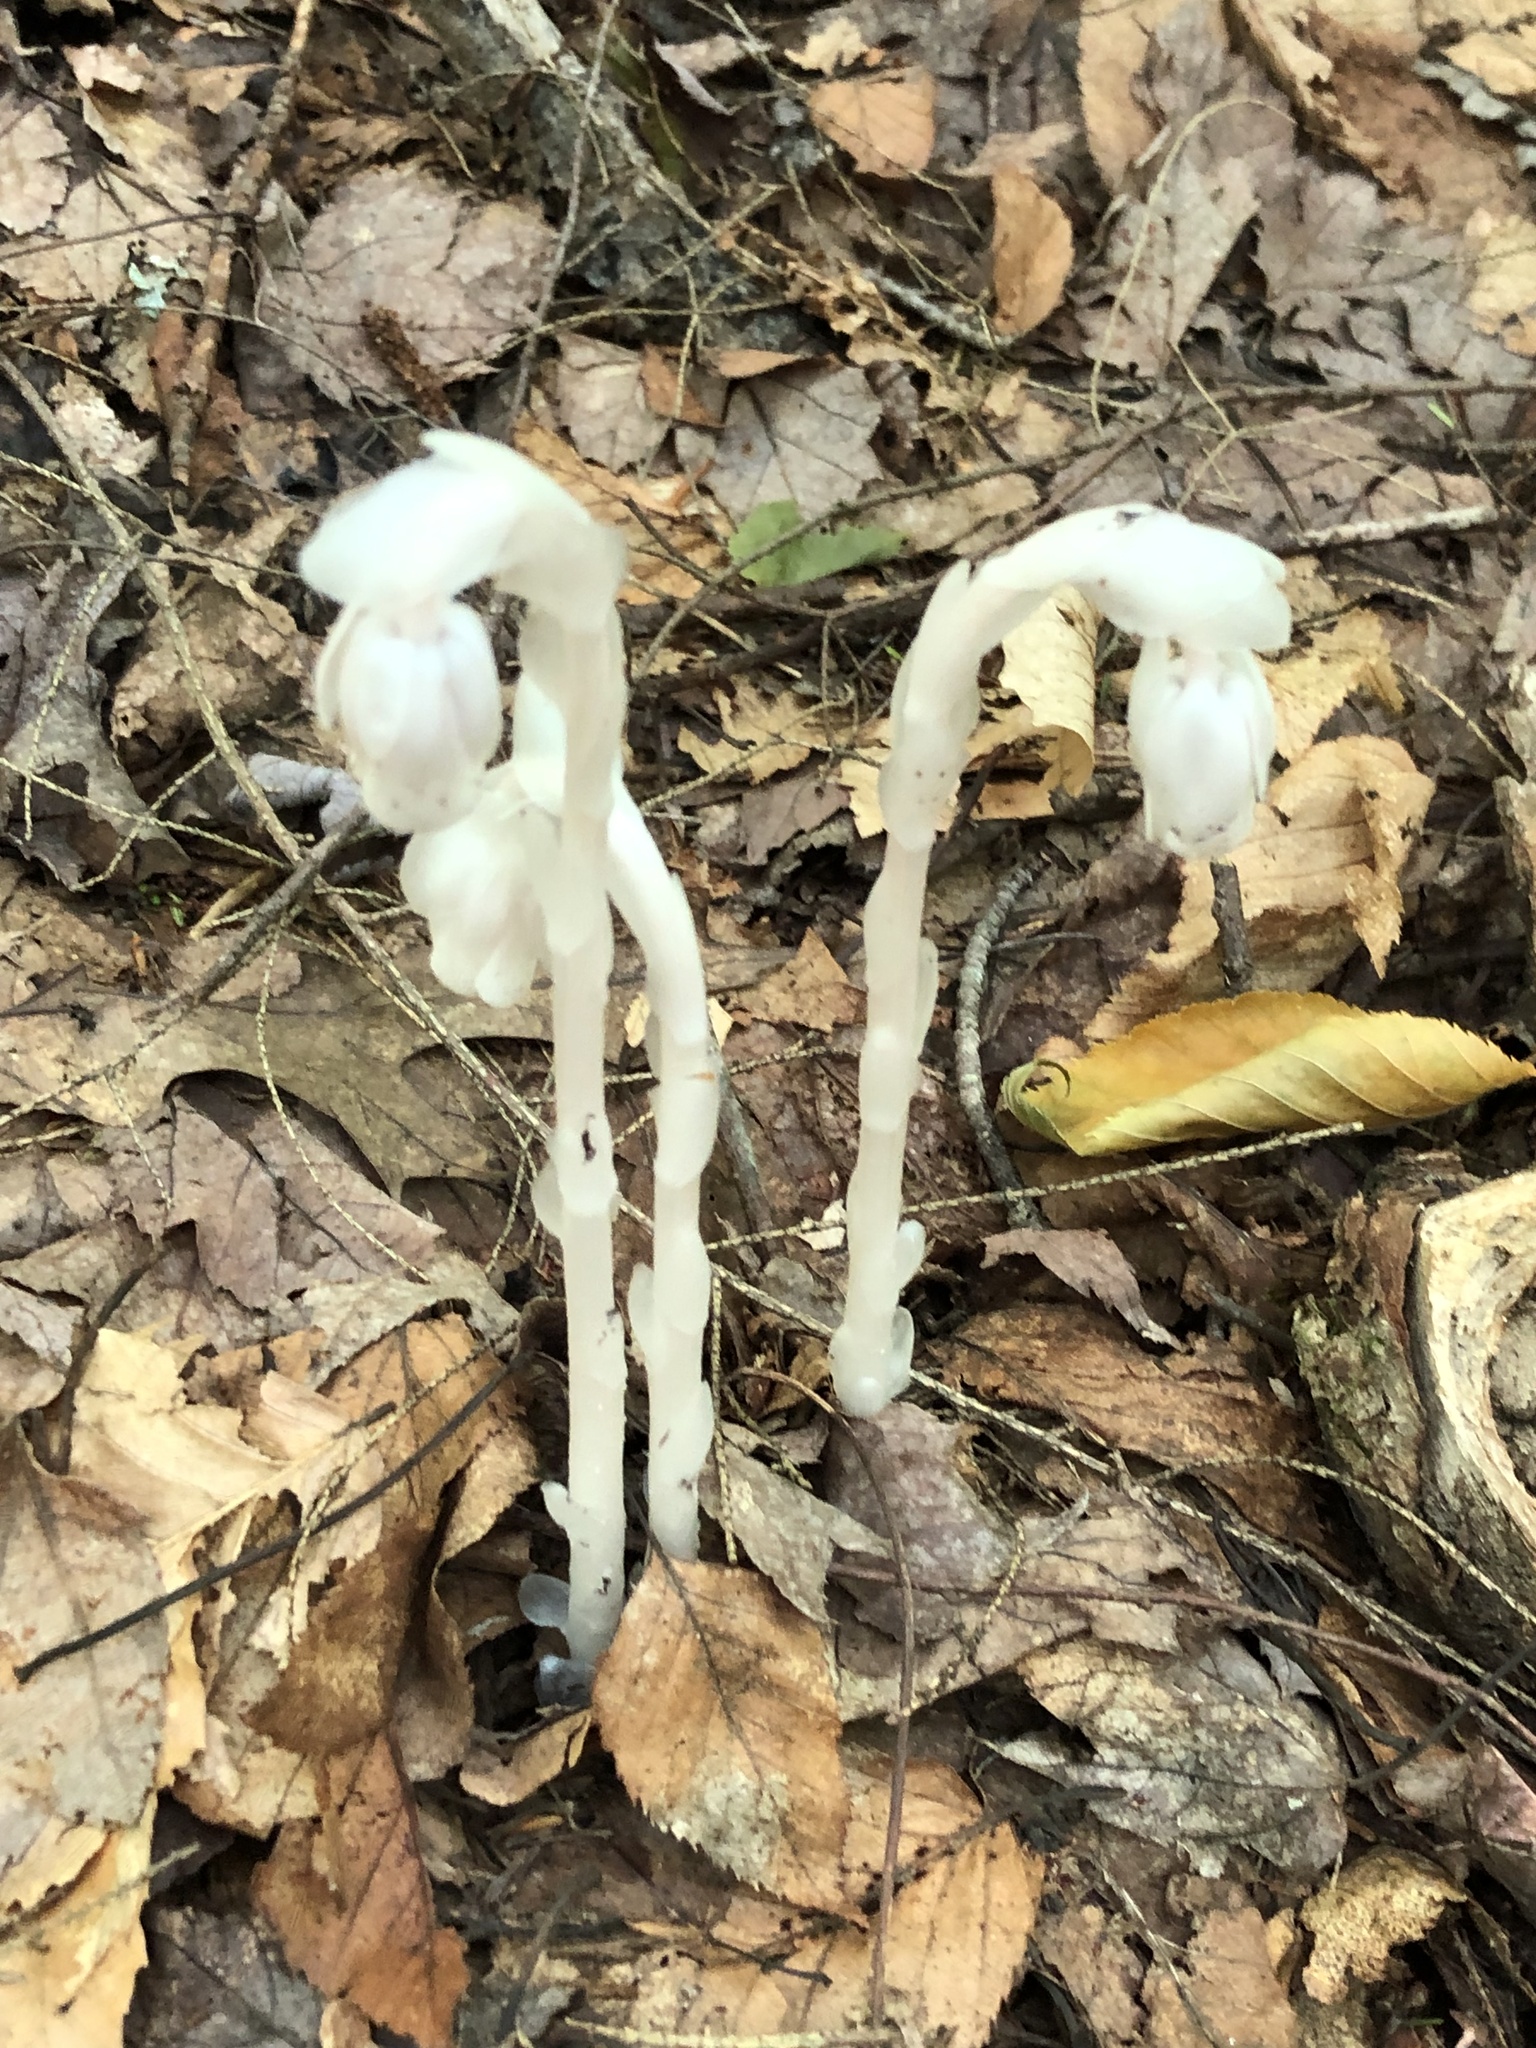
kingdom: Plantae
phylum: Tracheophyta
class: Magnoliopsida
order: Ericales
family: Ericaceae
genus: Monotropa
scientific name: Monotropa uniflora
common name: Convulsion root
